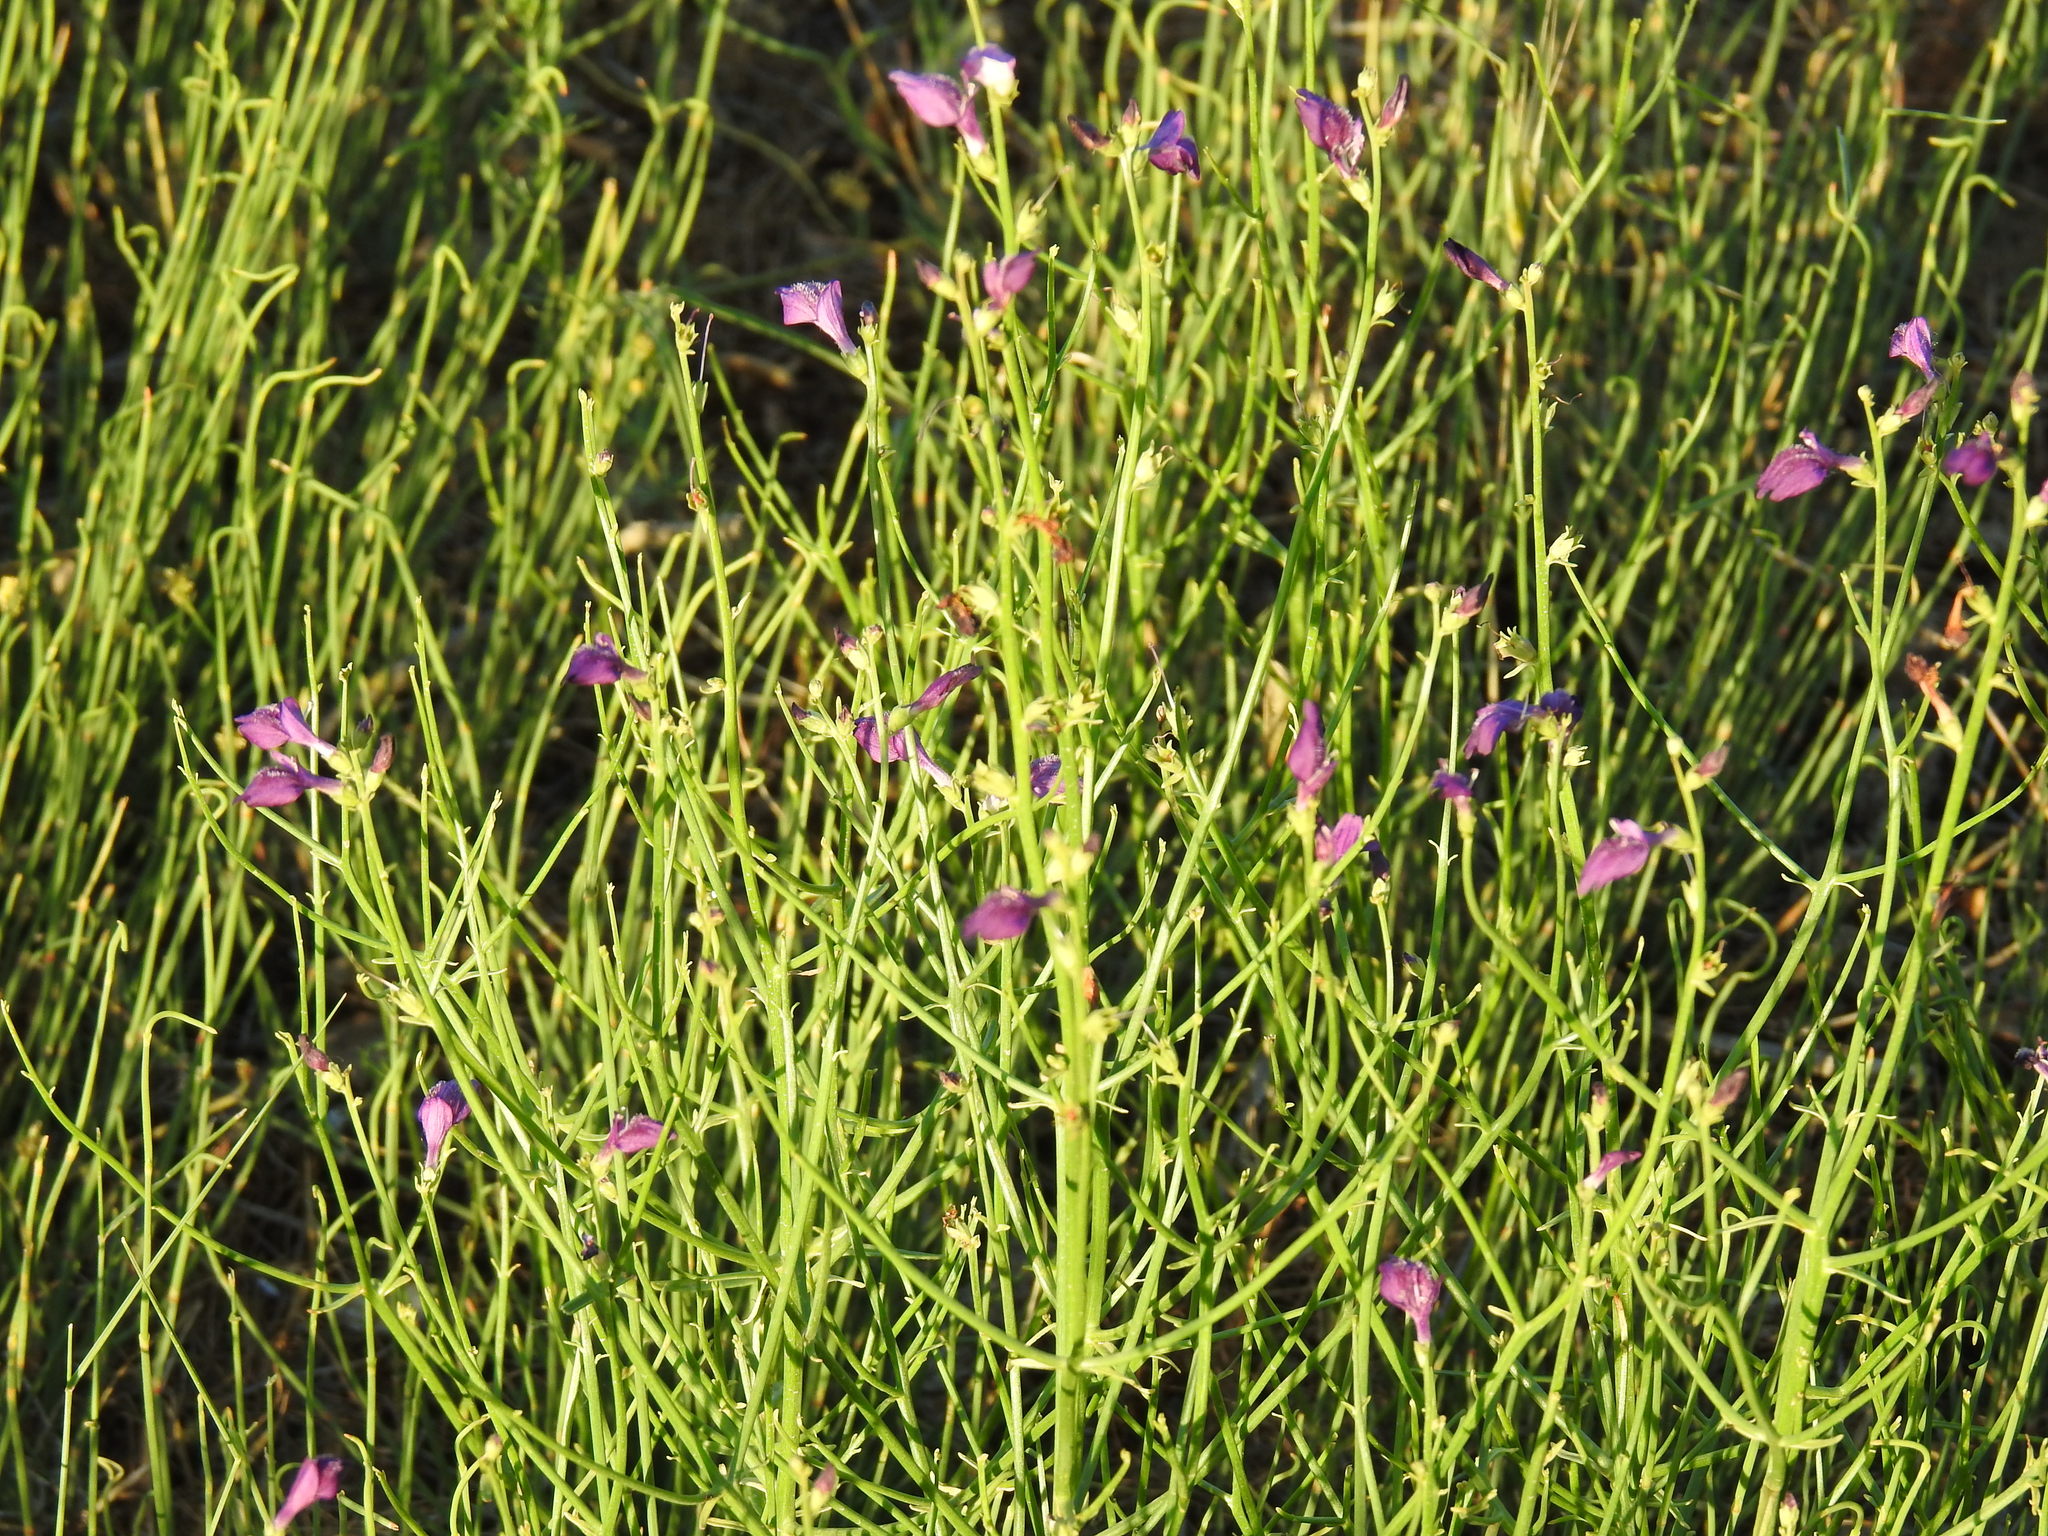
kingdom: Plantae
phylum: Tracheophyta
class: Magnoliopsida
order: Lamiales
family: Mazaceae
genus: Dodartia
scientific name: Dodartia orientalis
